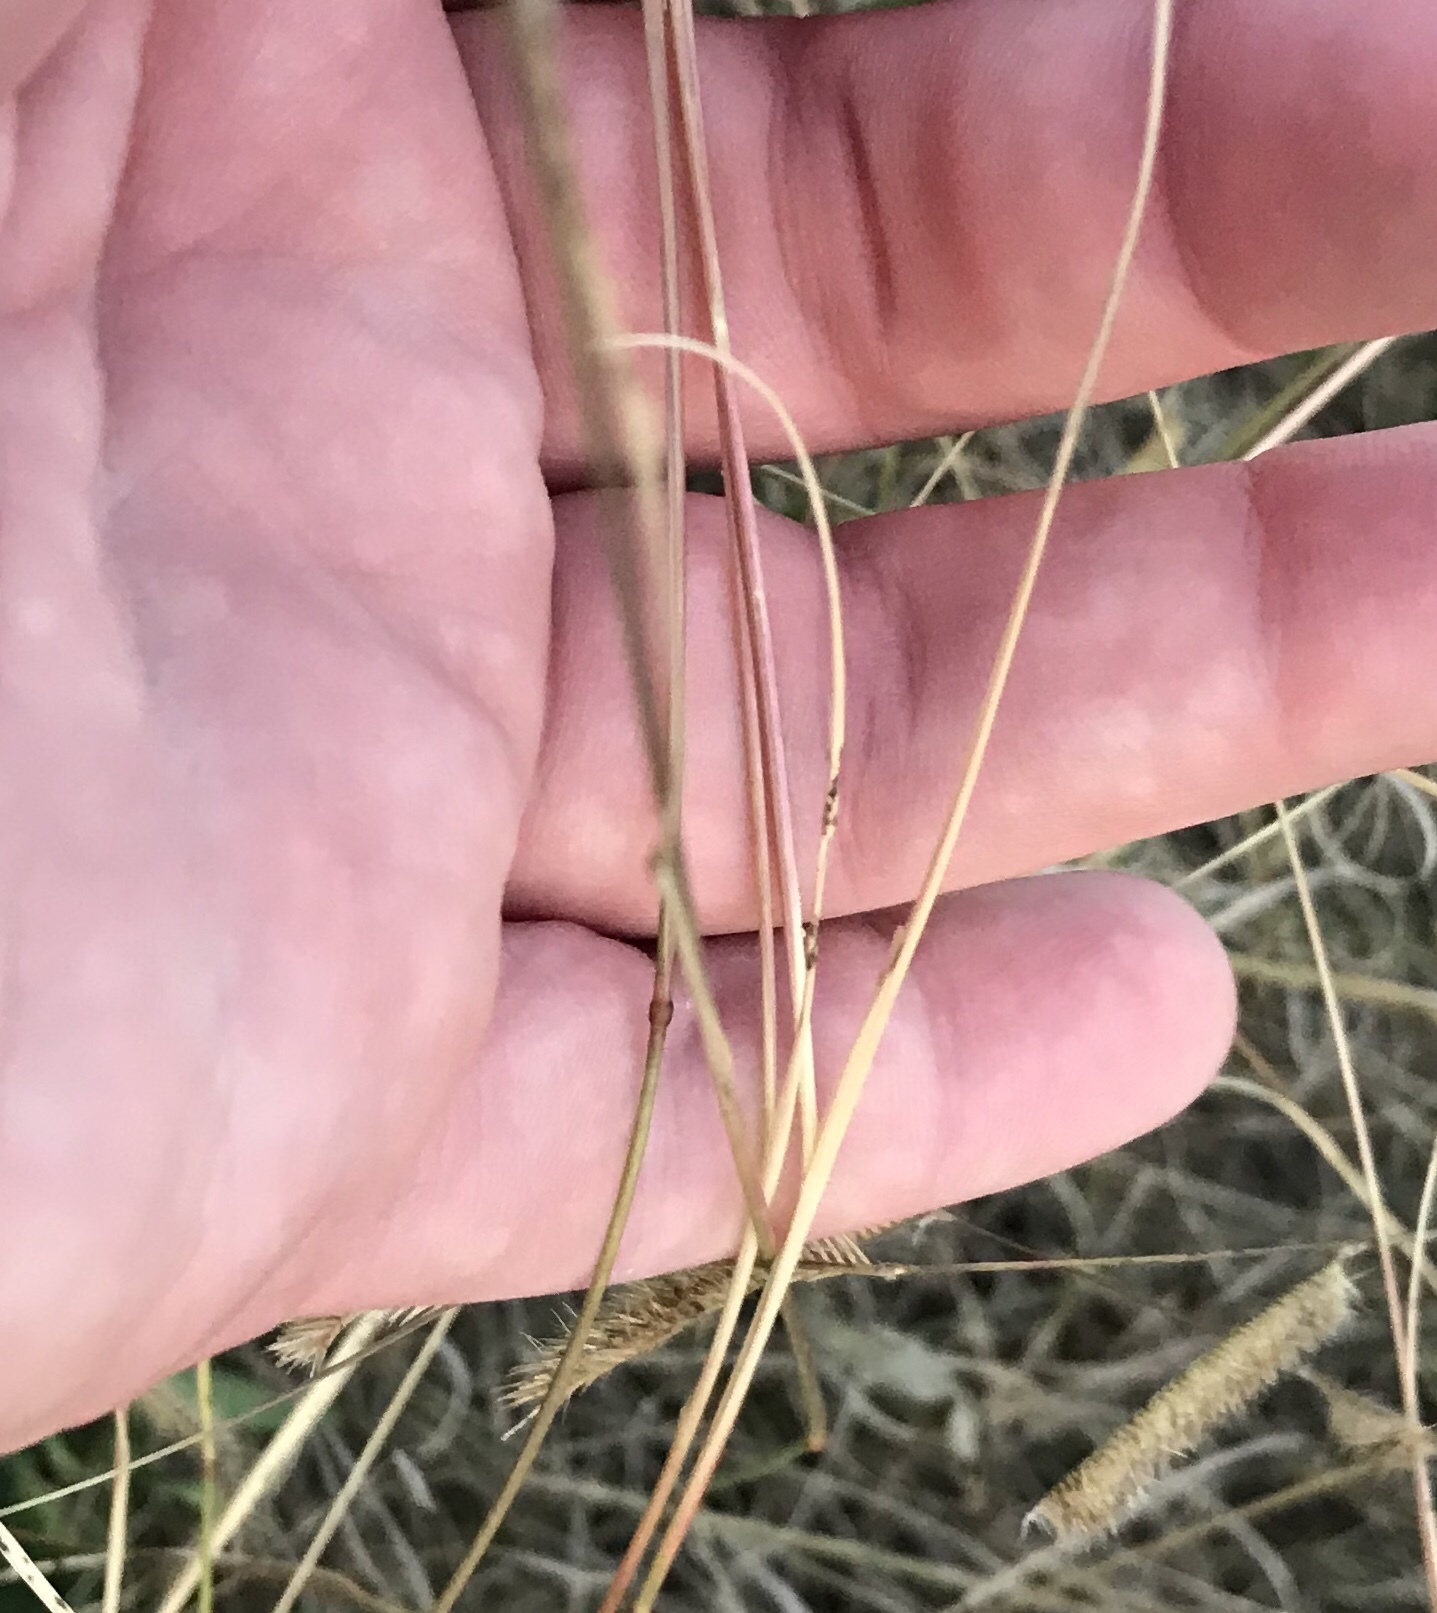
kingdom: Plantae
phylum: Tracheophyta
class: Liliopsida
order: Poales
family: Poaceae
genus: Bouteloua
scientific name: Bouteloua gracilis
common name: Blue grama
